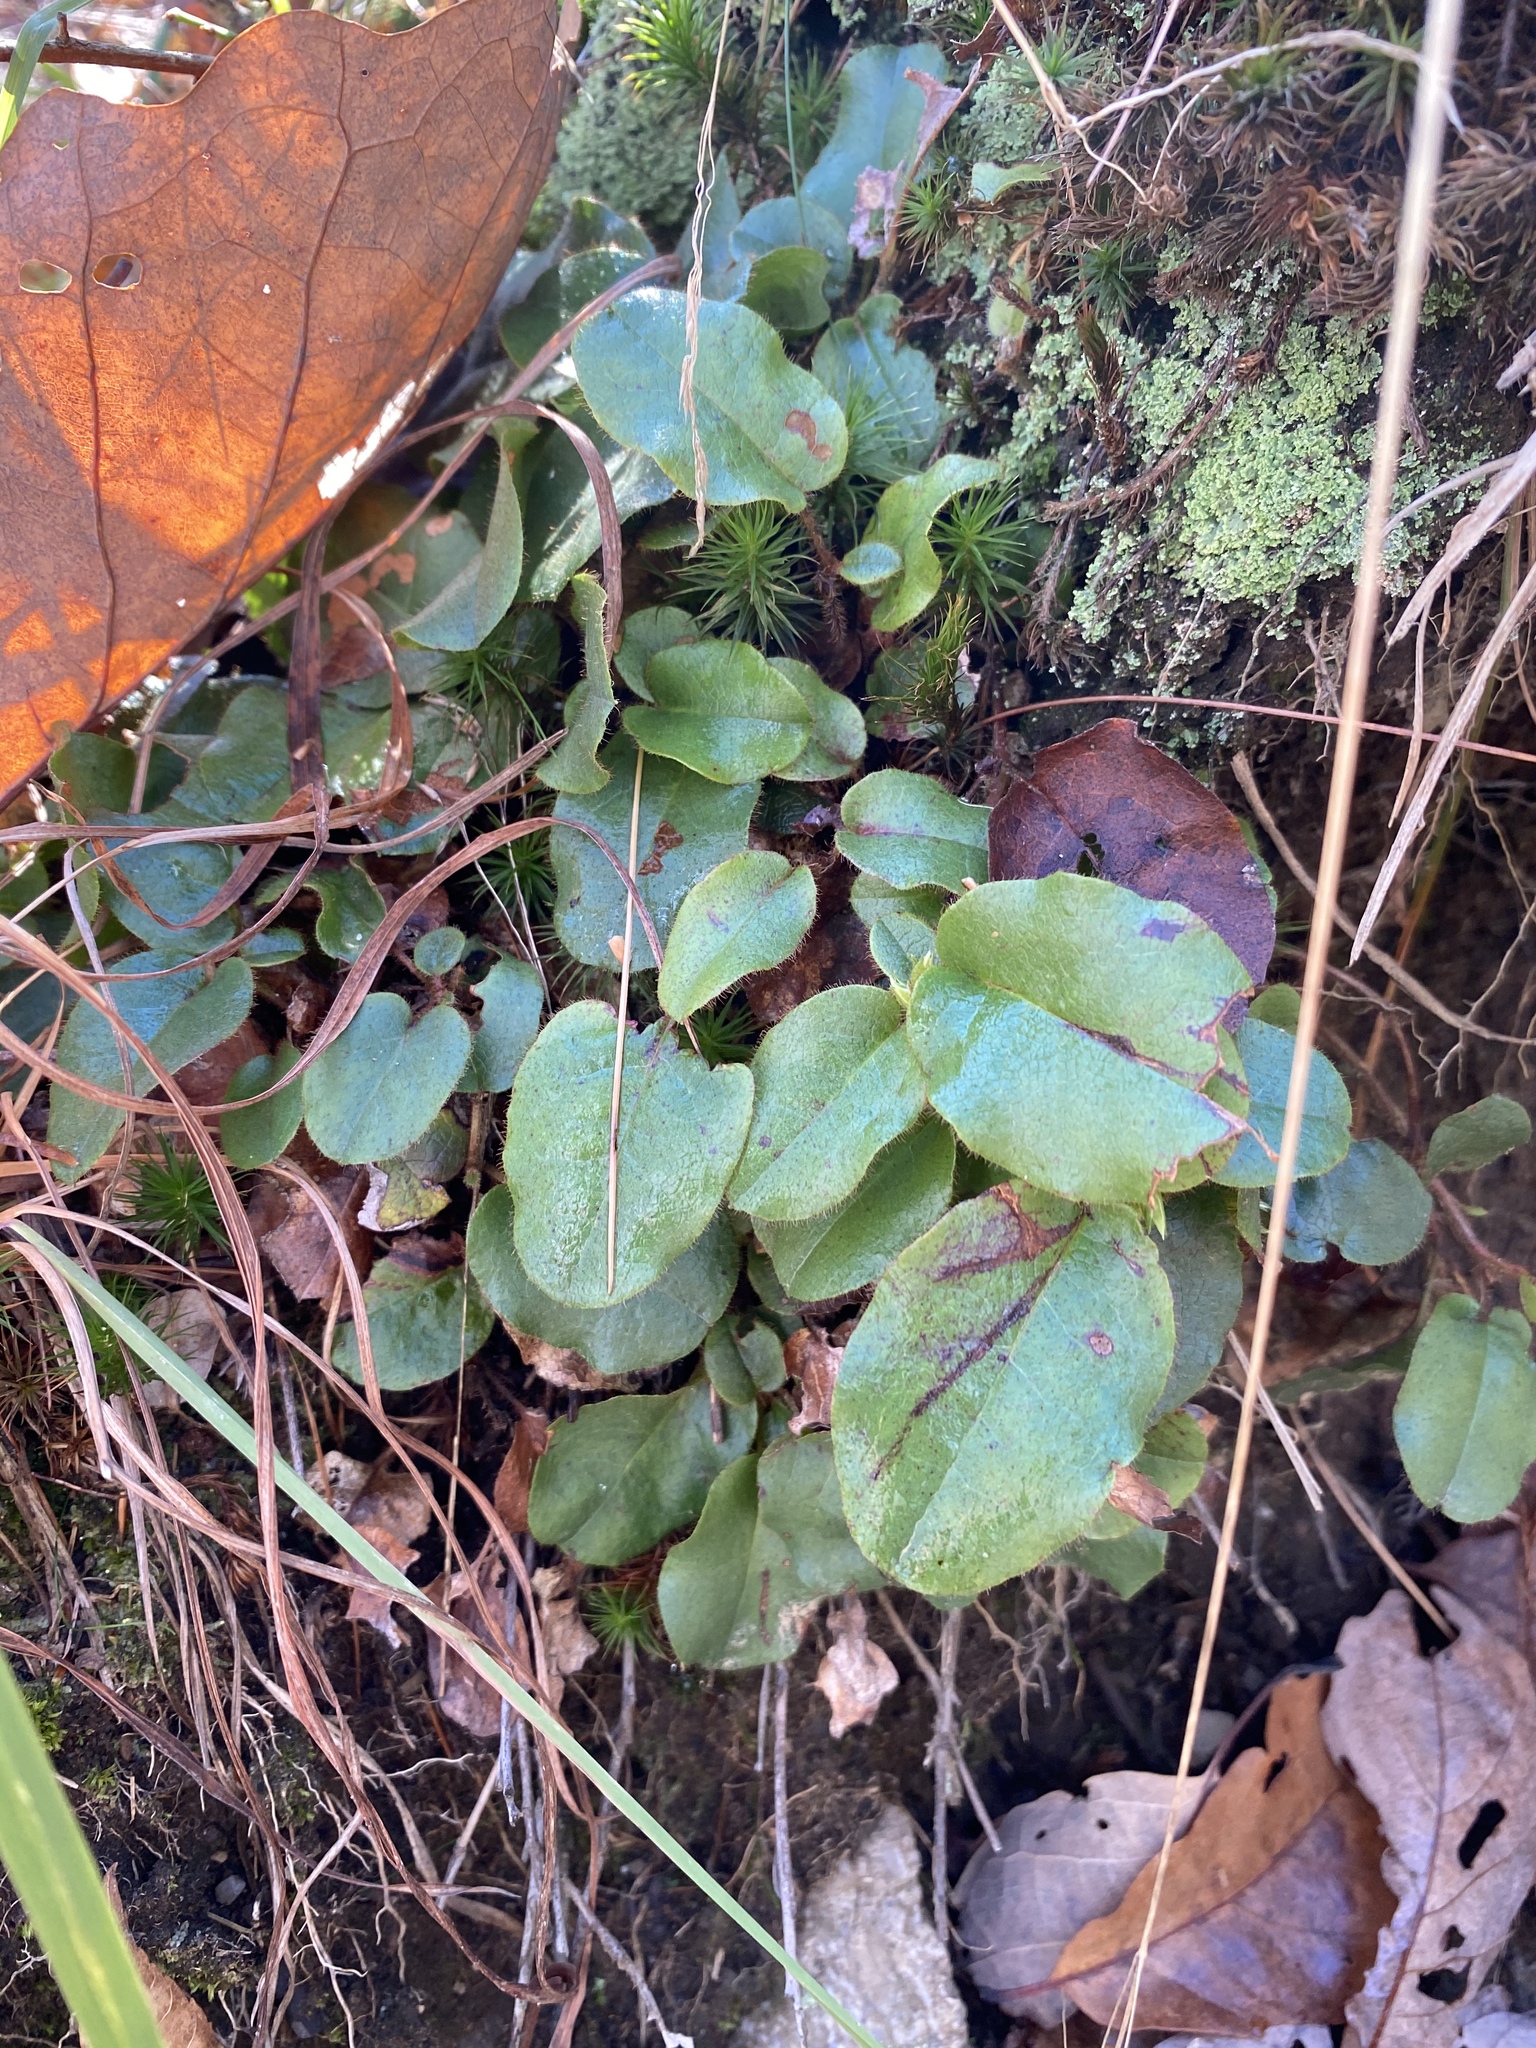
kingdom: Plantae
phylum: Tracheophyta
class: Magnoliopsida
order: Ericales
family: Ericaceae
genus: Epigaea
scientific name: Epigaea repens
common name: Gravelroot
